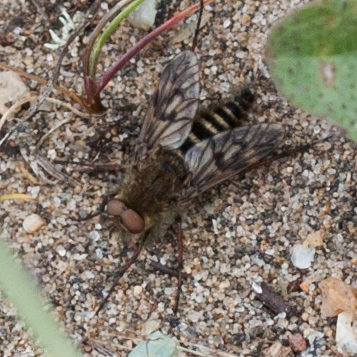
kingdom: Animalia
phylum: Arthropoda
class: Insecta
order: Diptera
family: Therevidae
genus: Thereva
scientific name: Thereva comata
